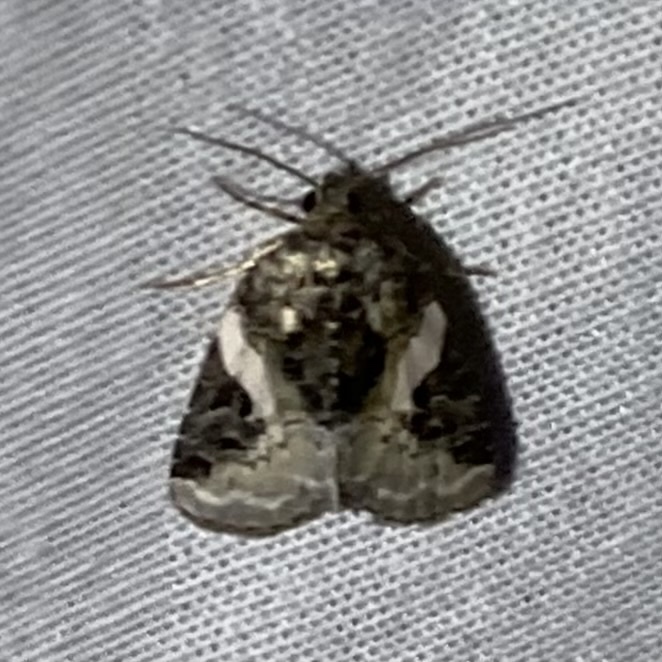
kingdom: Animalia
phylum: Arthropoda
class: Insecta
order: Lepidoptera
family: Noctuidae
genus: Pseudeustrotia
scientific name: Pseudeustrotia carneola
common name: Pink-barred lithacodia moth
